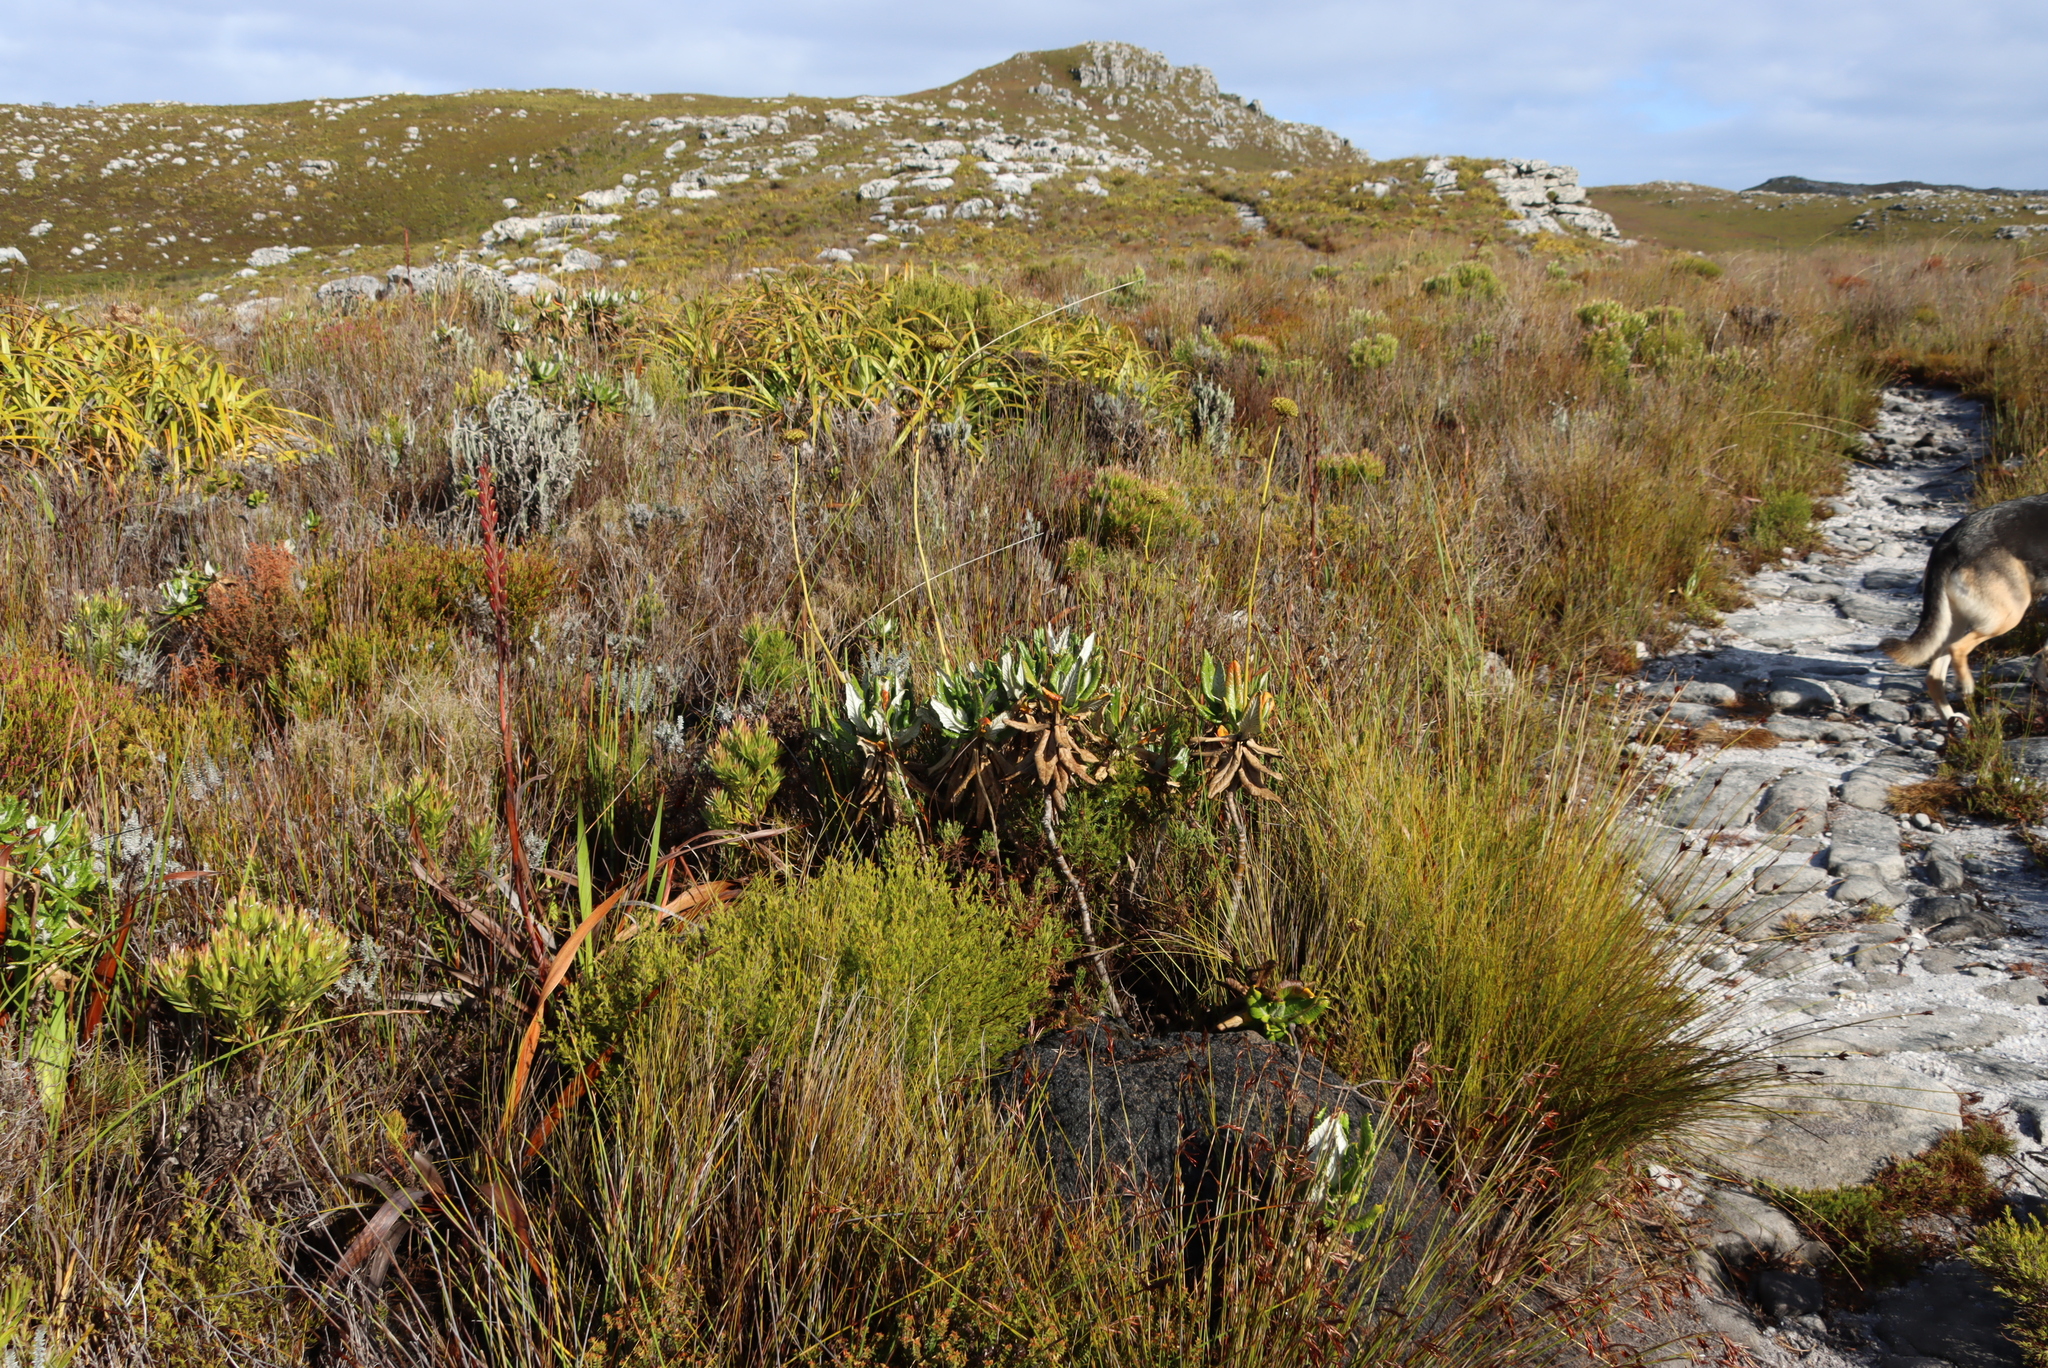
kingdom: Plantae
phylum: Tracheophyta
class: Magnoliopsida
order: Apiales
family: Apiaceae
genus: Hermas
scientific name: Hermas villosa
